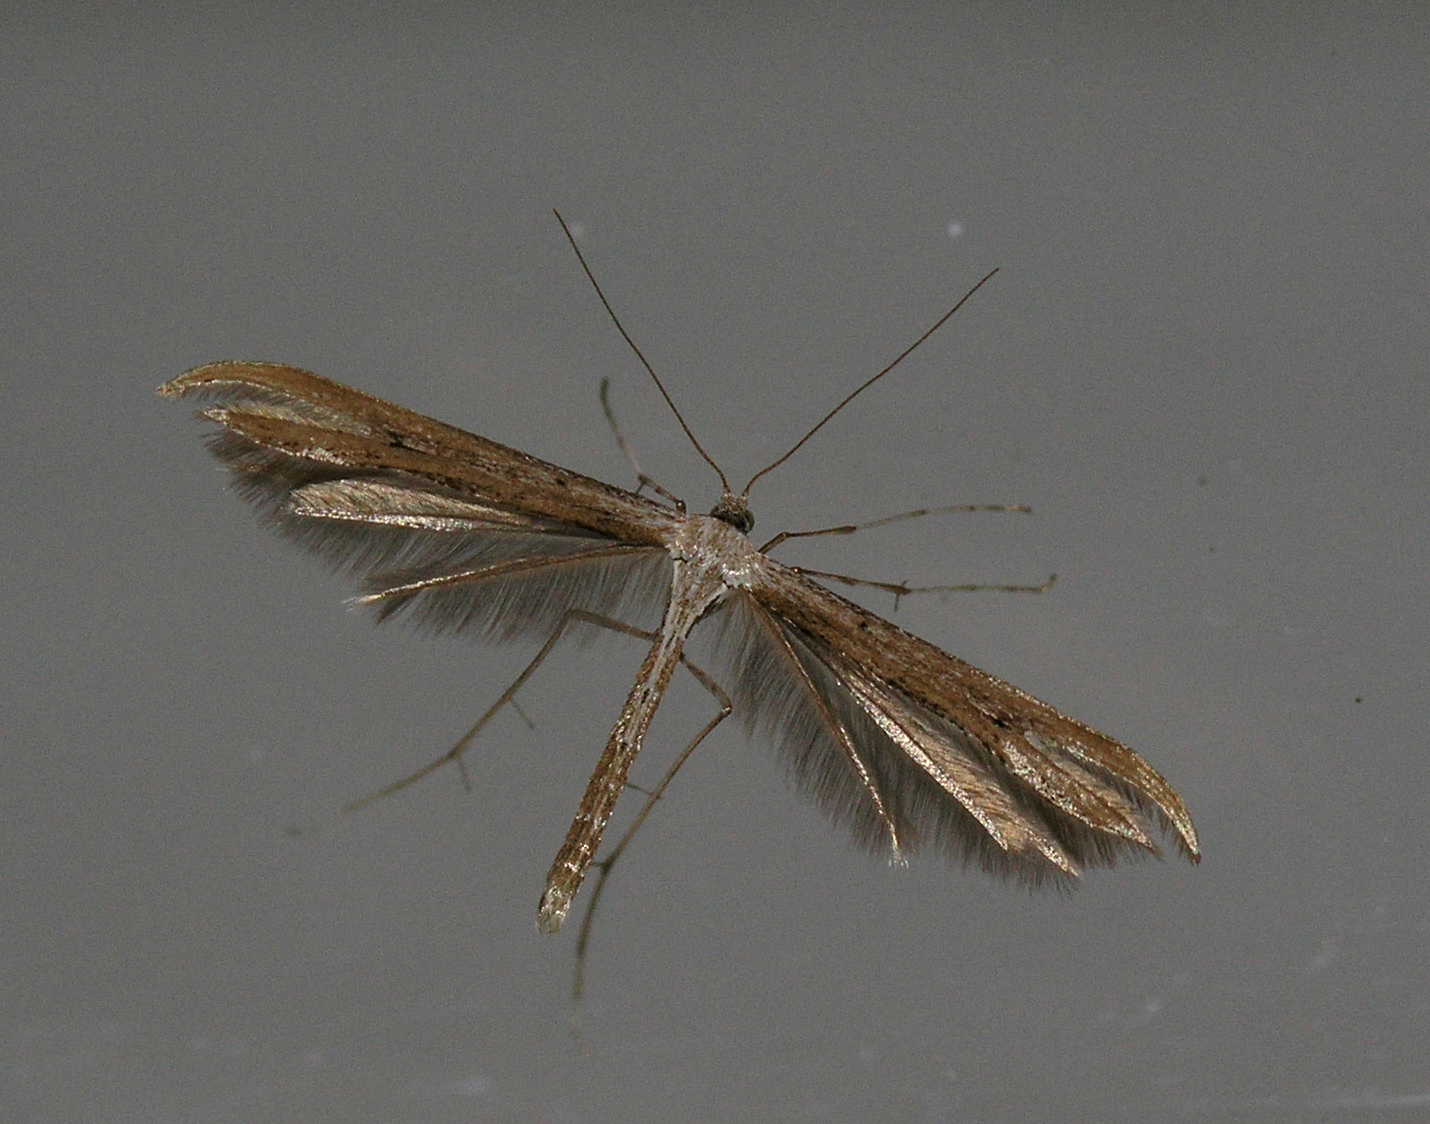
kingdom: Animalia
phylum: Arthropoda
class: Insecta
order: Lepidoptera
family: Pterophoridae
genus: Emmelina
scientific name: Emmelina monodactyla
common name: Common plume
